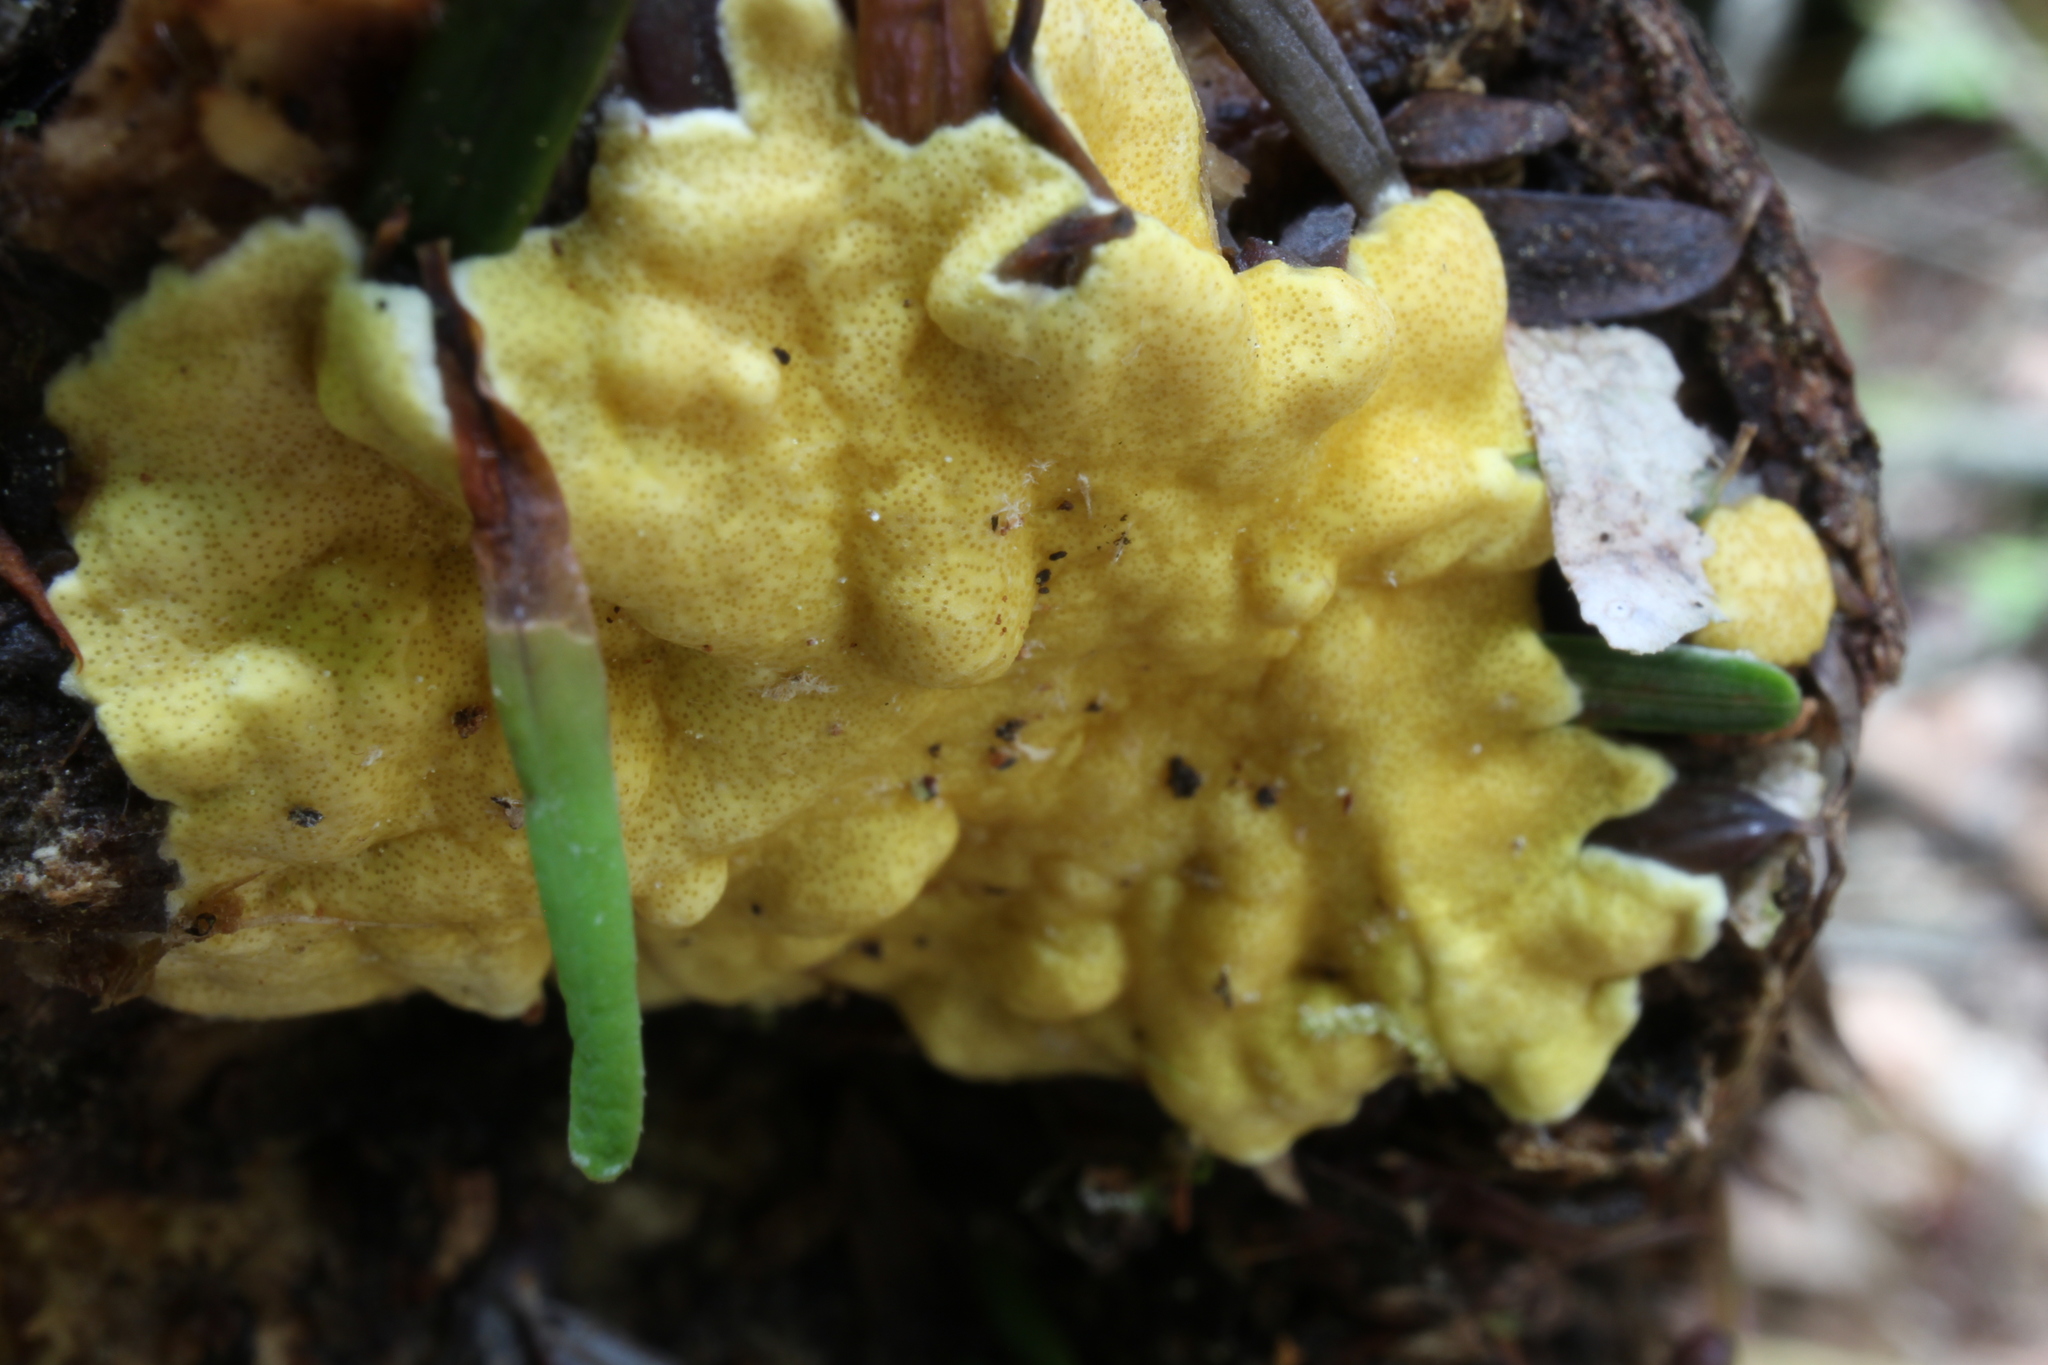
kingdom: Fungi
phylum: Ascomycota
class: Sordariomycetes
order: Hypocreales
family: Hypocreaceae
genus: Trichoderma
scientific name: Trichoderma sulphureum
